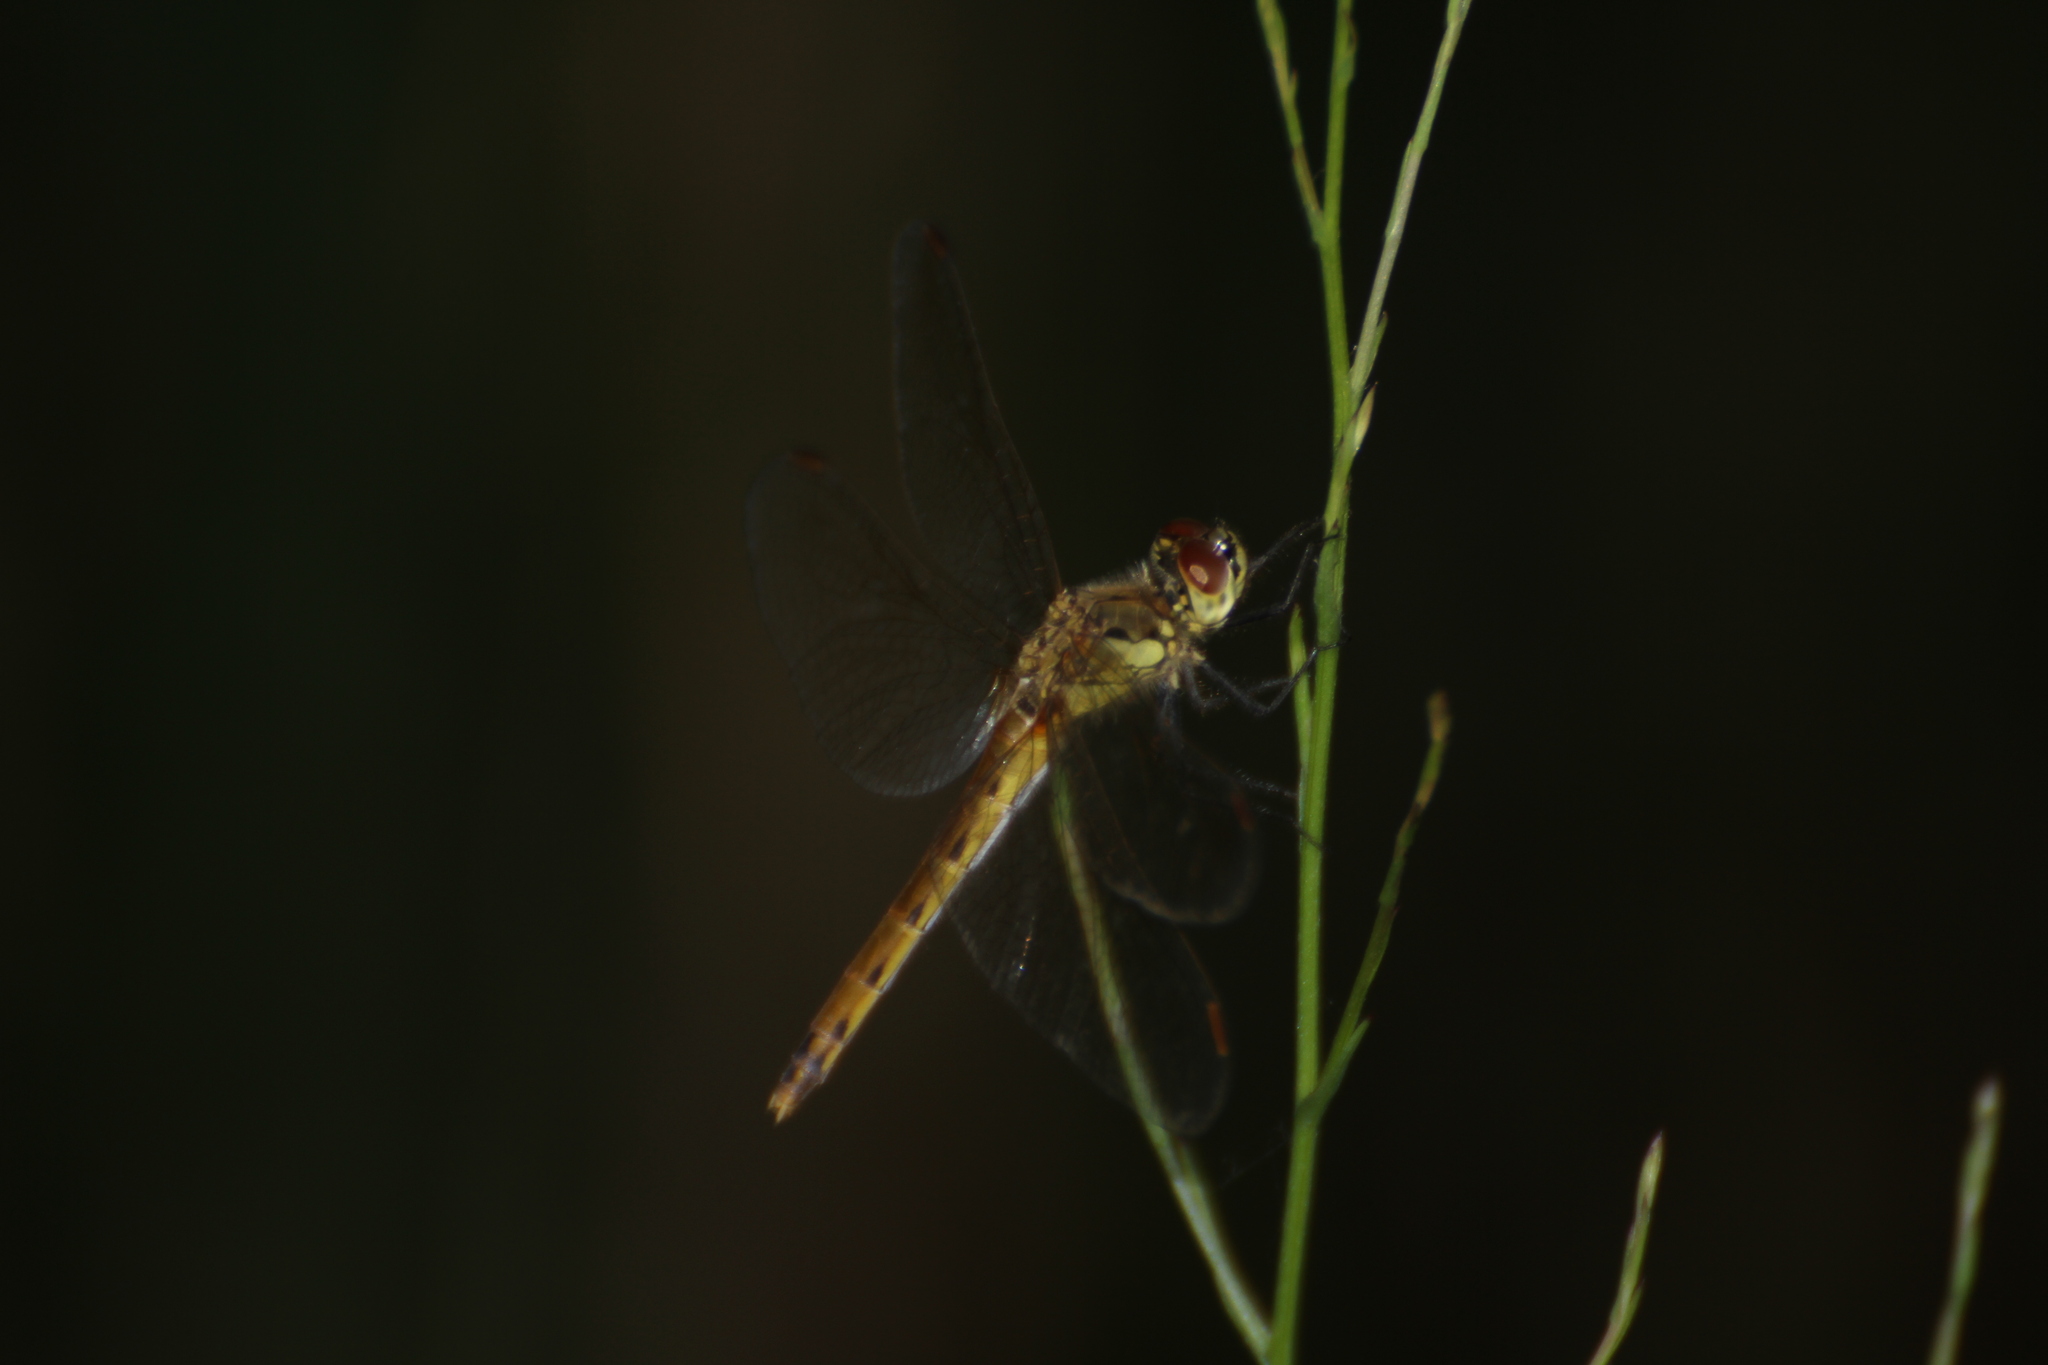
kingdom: Animalia
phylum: Arthropoda
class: Insecta
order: Odonata
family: Libellulidae
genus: Sympetrum
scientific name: Sympetrum depressiusculum
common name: Spotted darter
